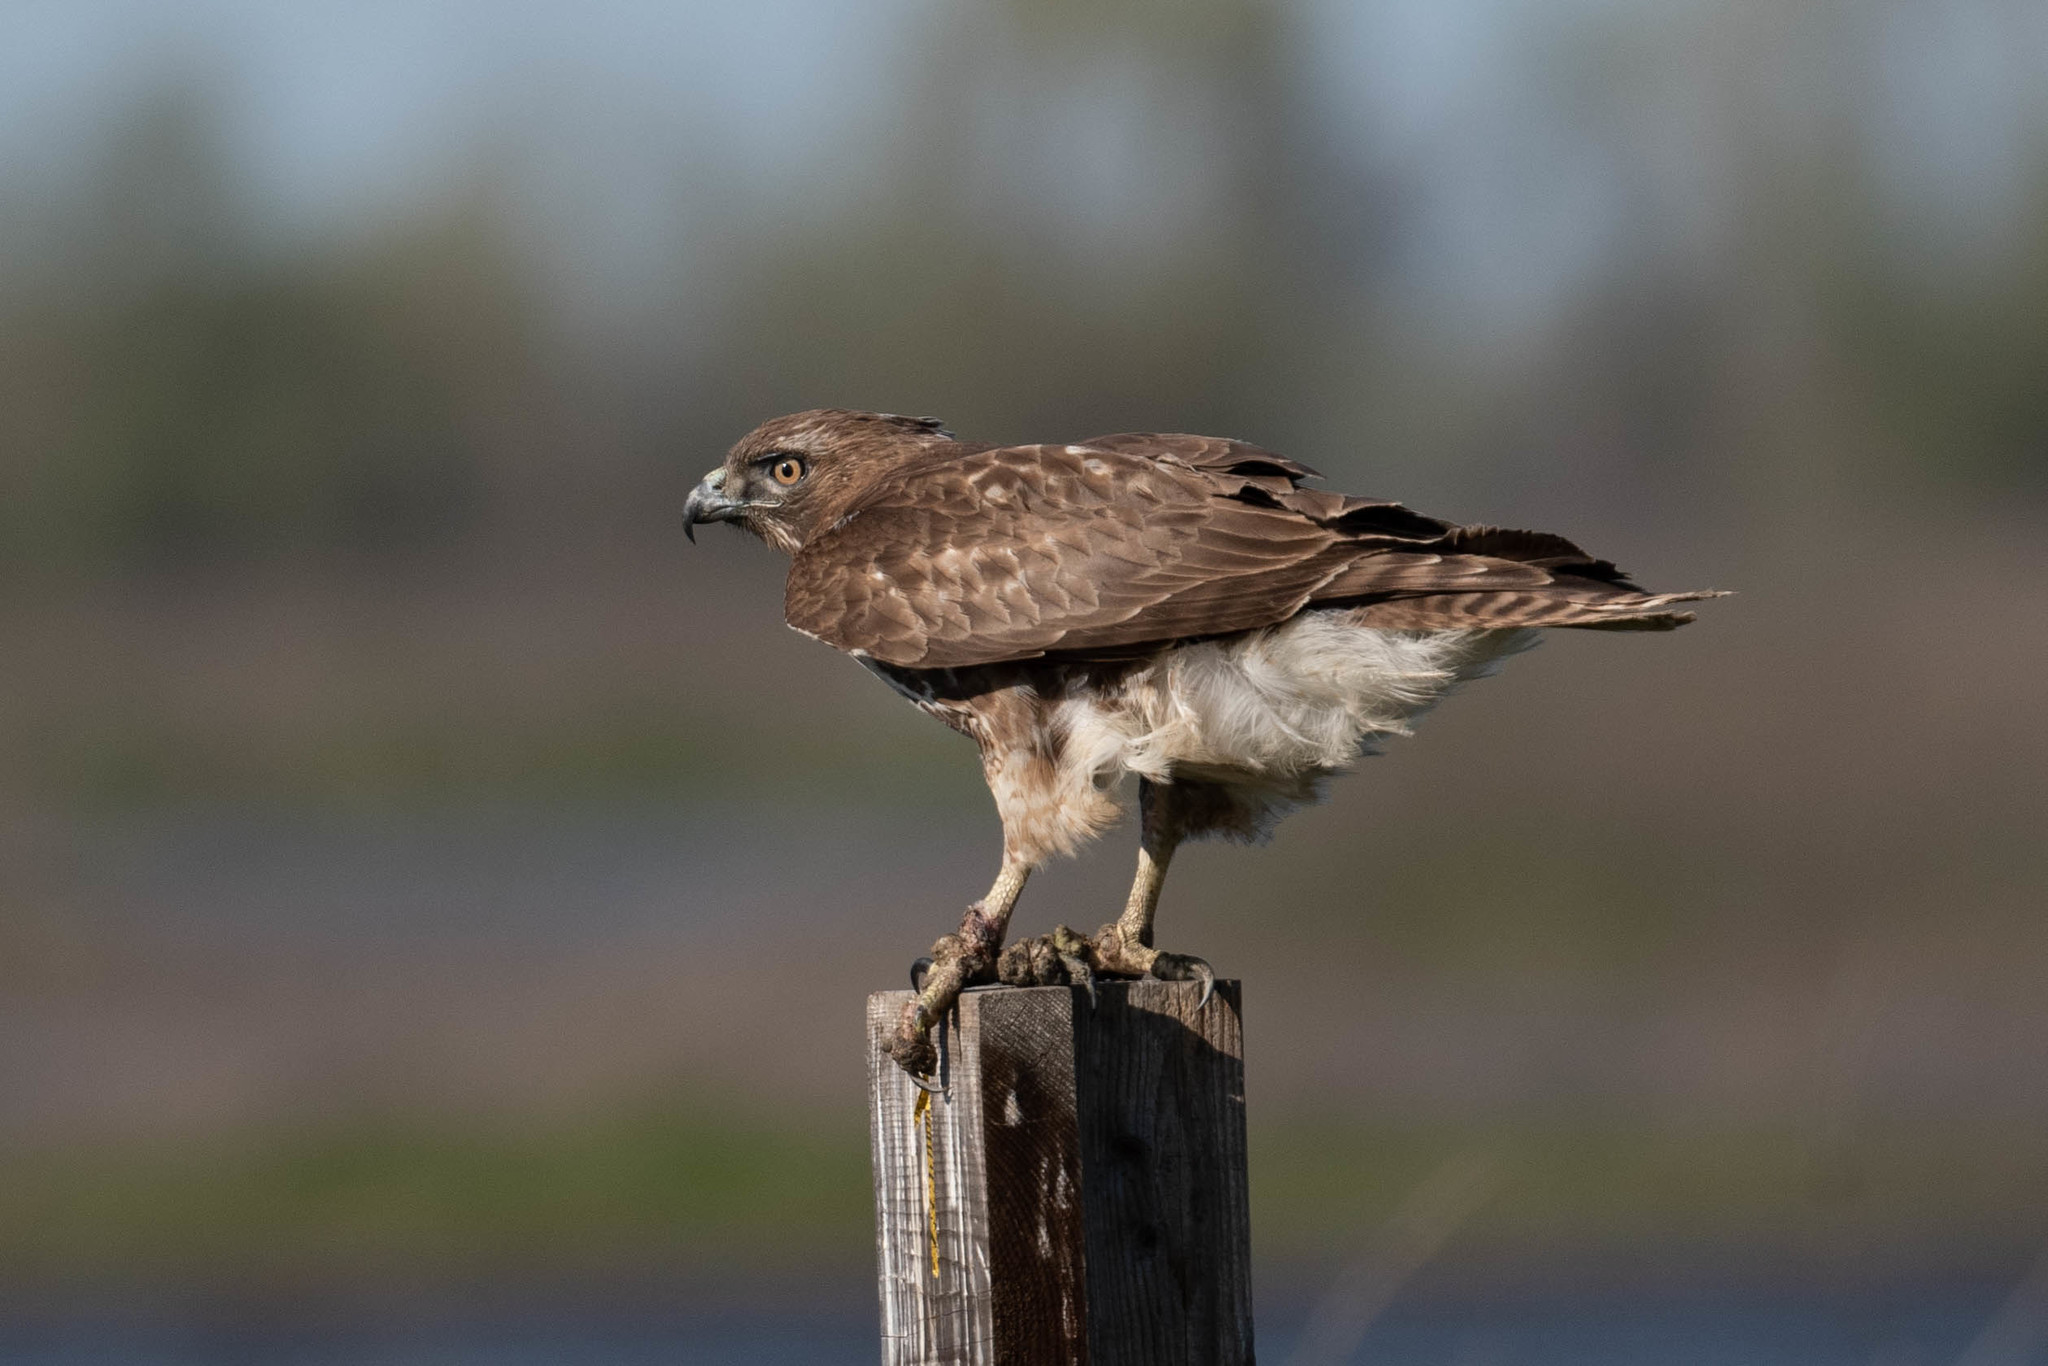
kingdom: Animalia
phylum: Chordata
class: Aves
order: Accipitriformes
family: Accipitridae
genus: Buteo
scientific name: Buteo jamaicensis
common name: Red-tailed hawk
